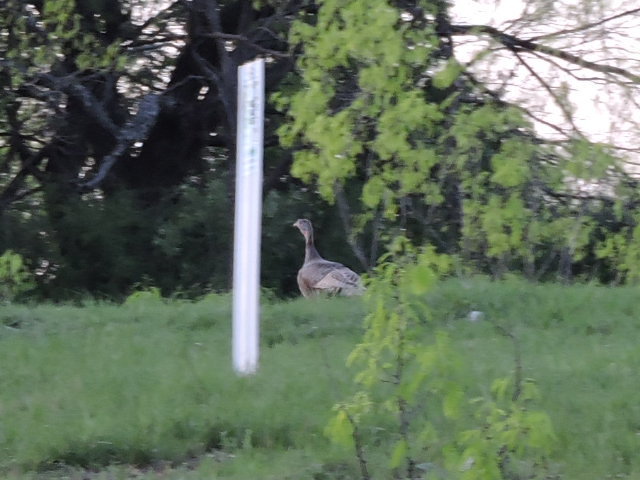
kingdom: Animalia
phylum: Chordata
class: Aves
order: Galliformes
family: Phasianidae
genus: Meleagris
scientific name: Meleagris gallopavo
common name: Wild turkey
